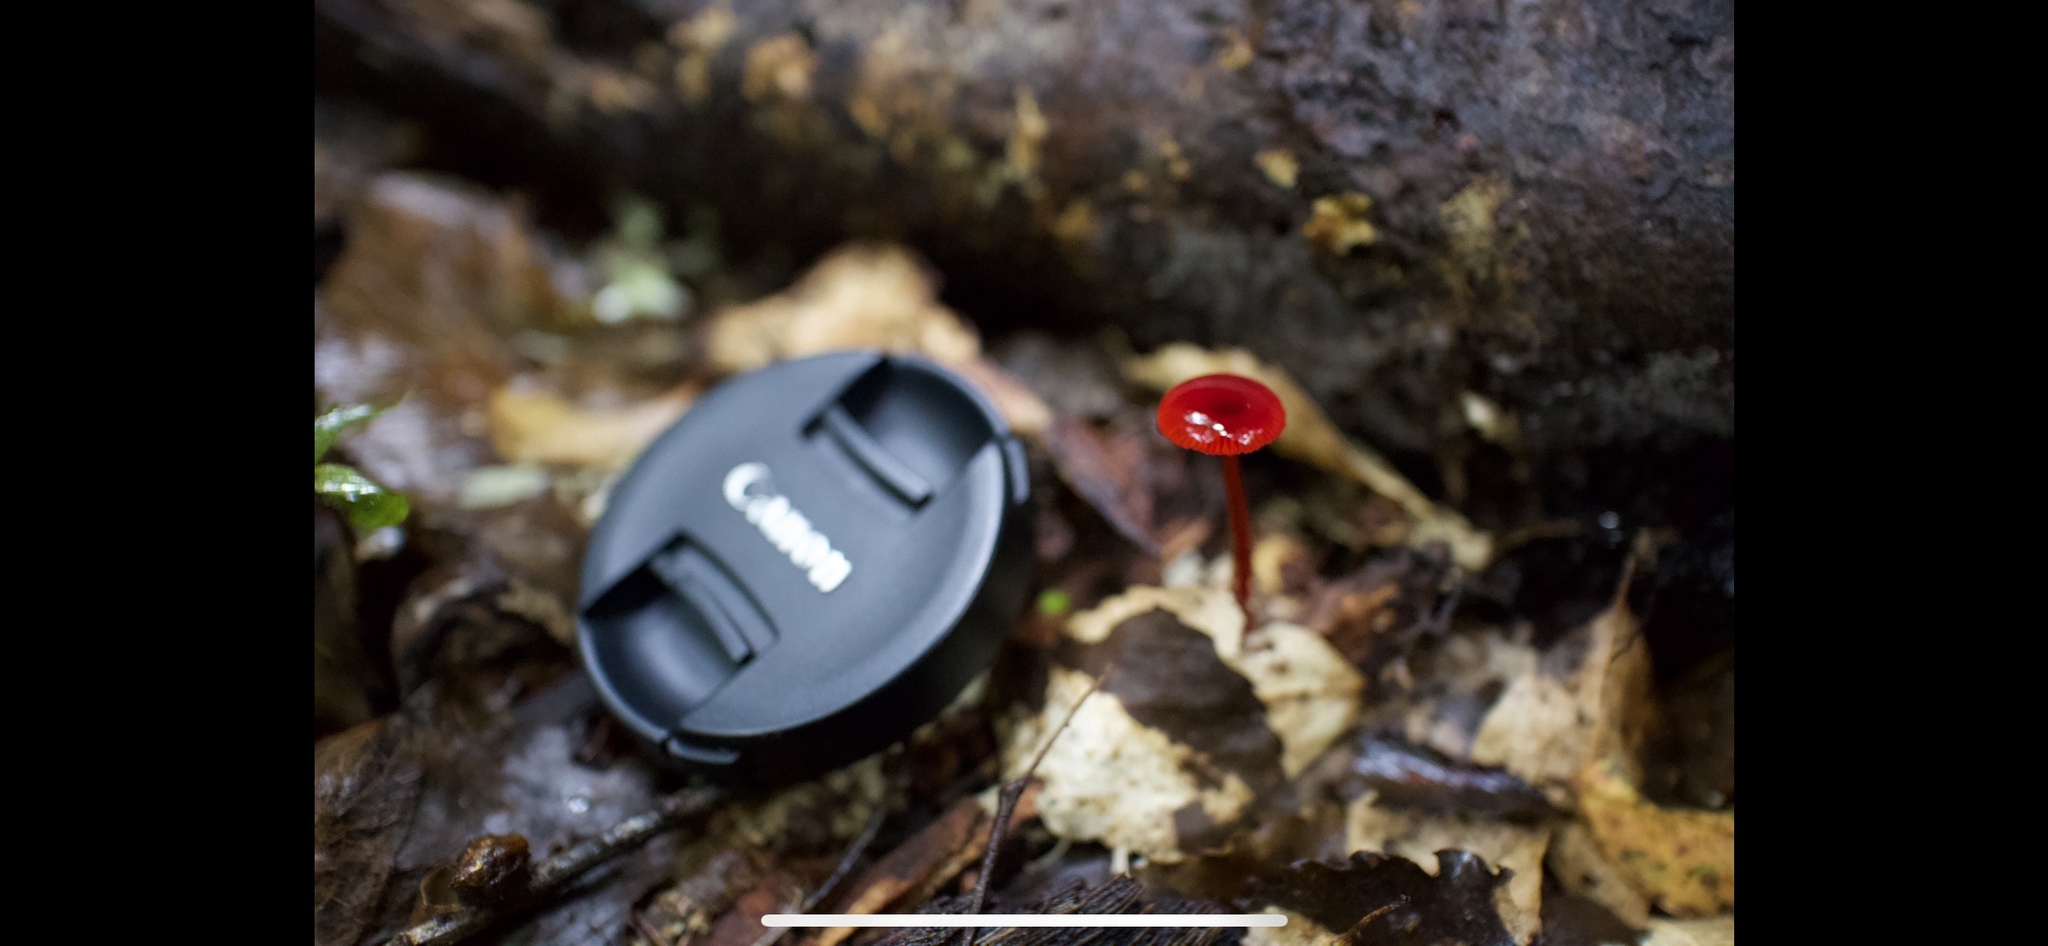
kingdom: Fungi
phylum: Basidiomycota
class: Agaricomycetes
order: Agaricales
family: Mycenaceae
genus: Cruentomycena
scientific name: Cruentomycena viscidocruenta
